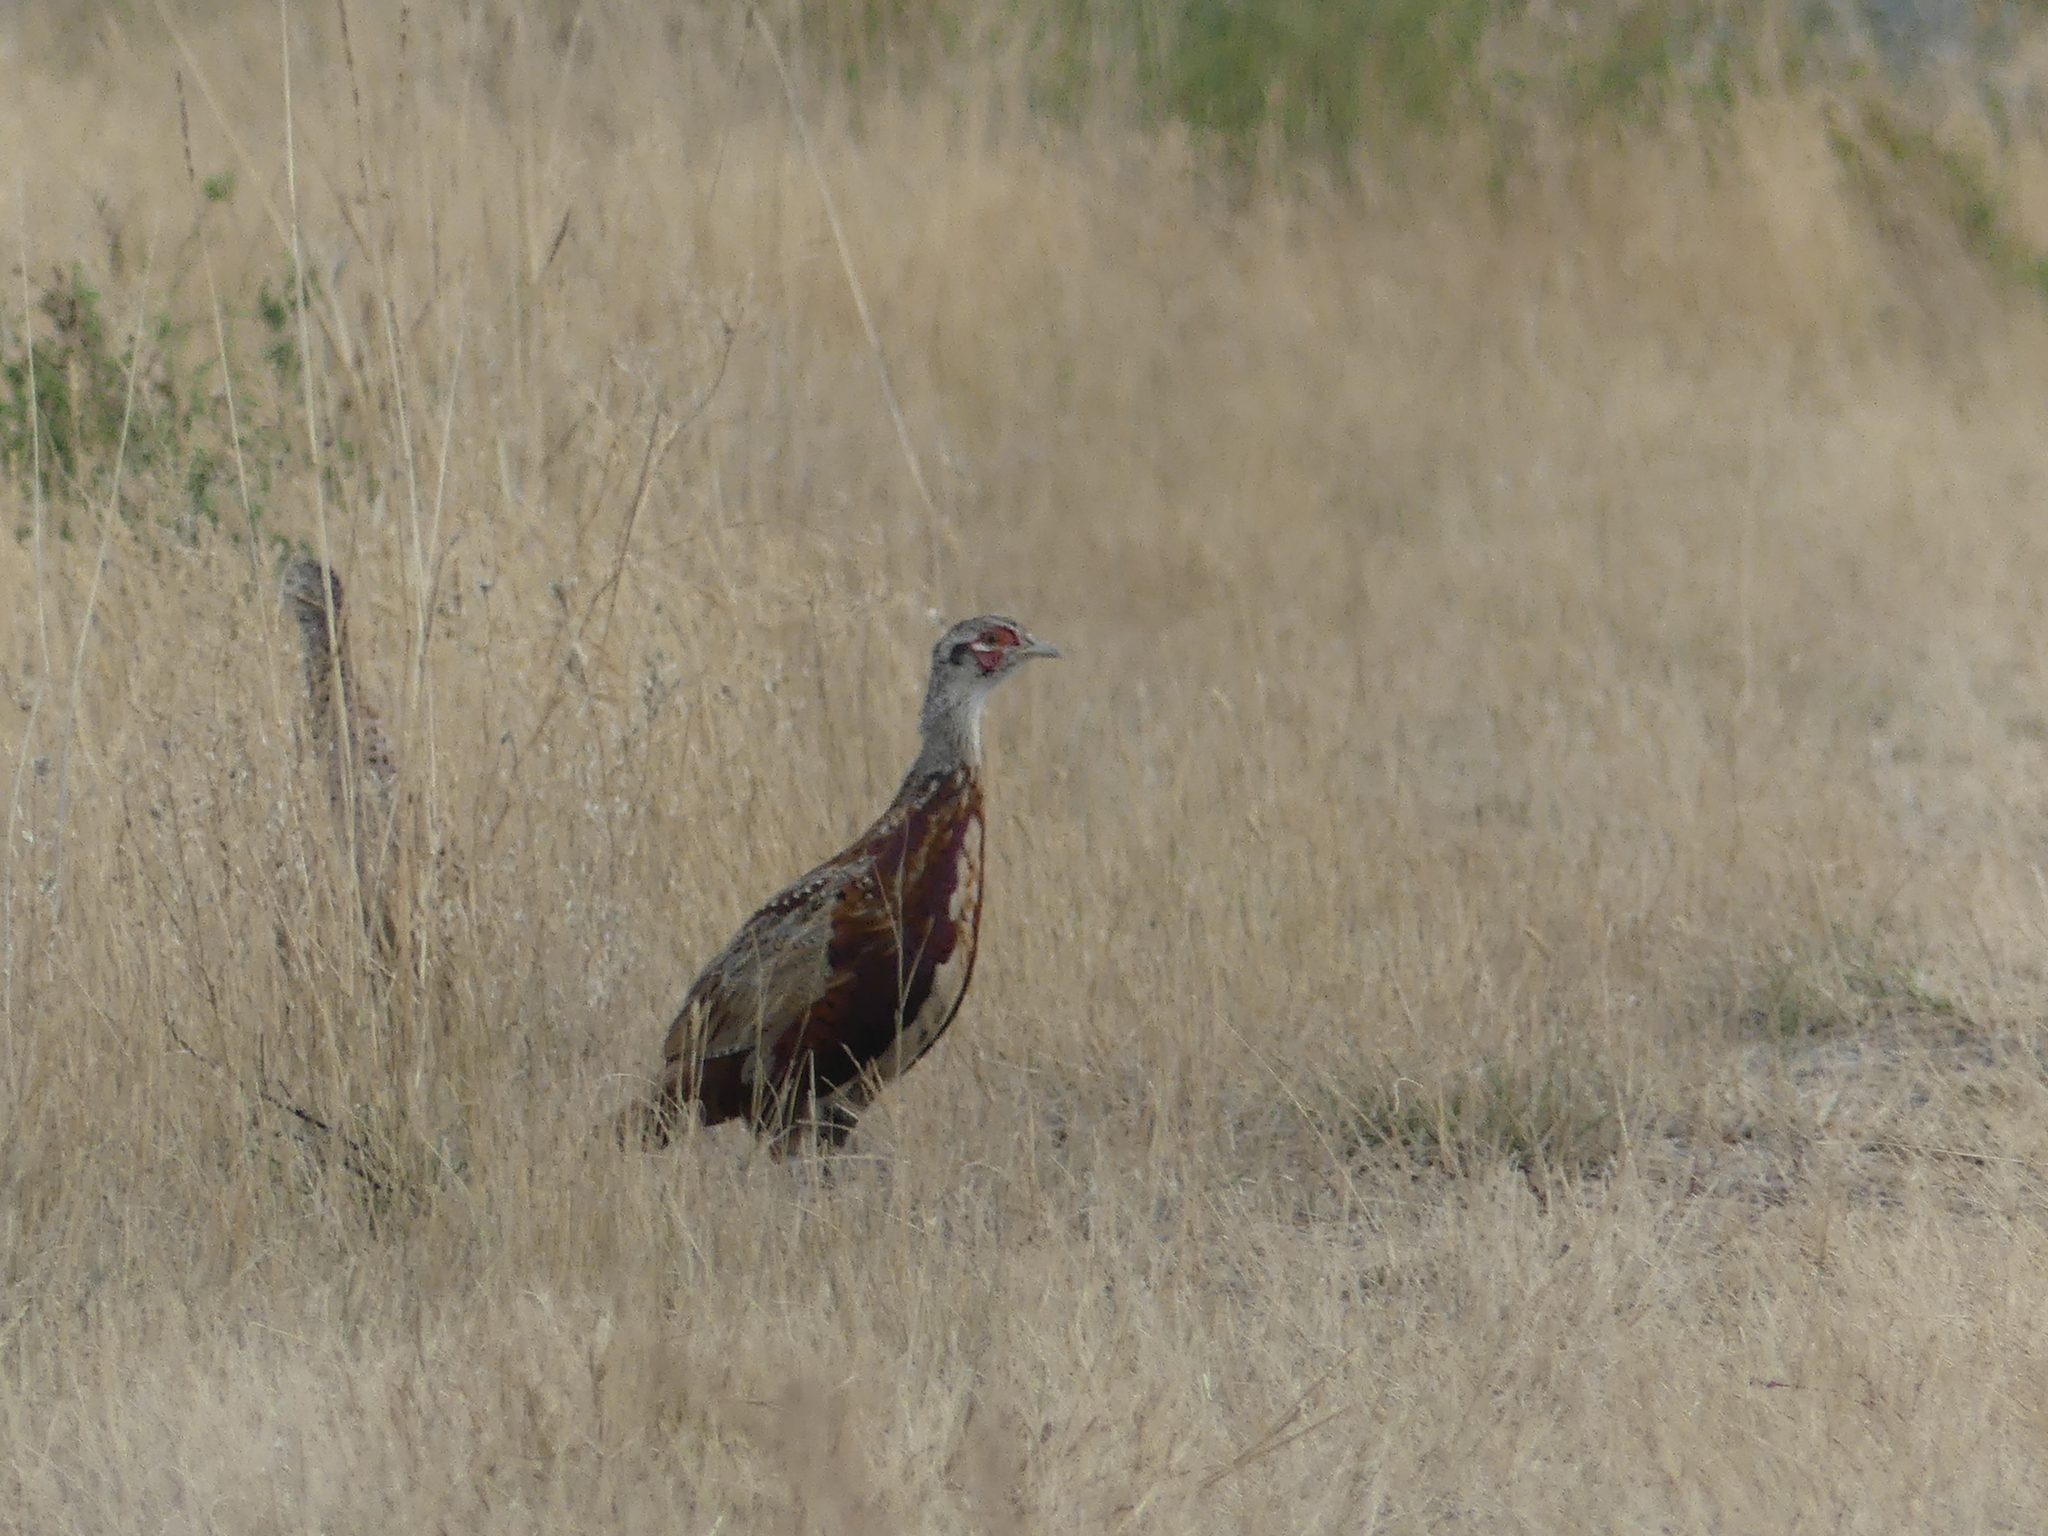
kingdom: Animalia
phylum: Chordata
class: Aves
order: Galliformes
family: Phasianidae
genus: Phasianus
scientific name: Phasianus colchicus
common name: Common pheasant
